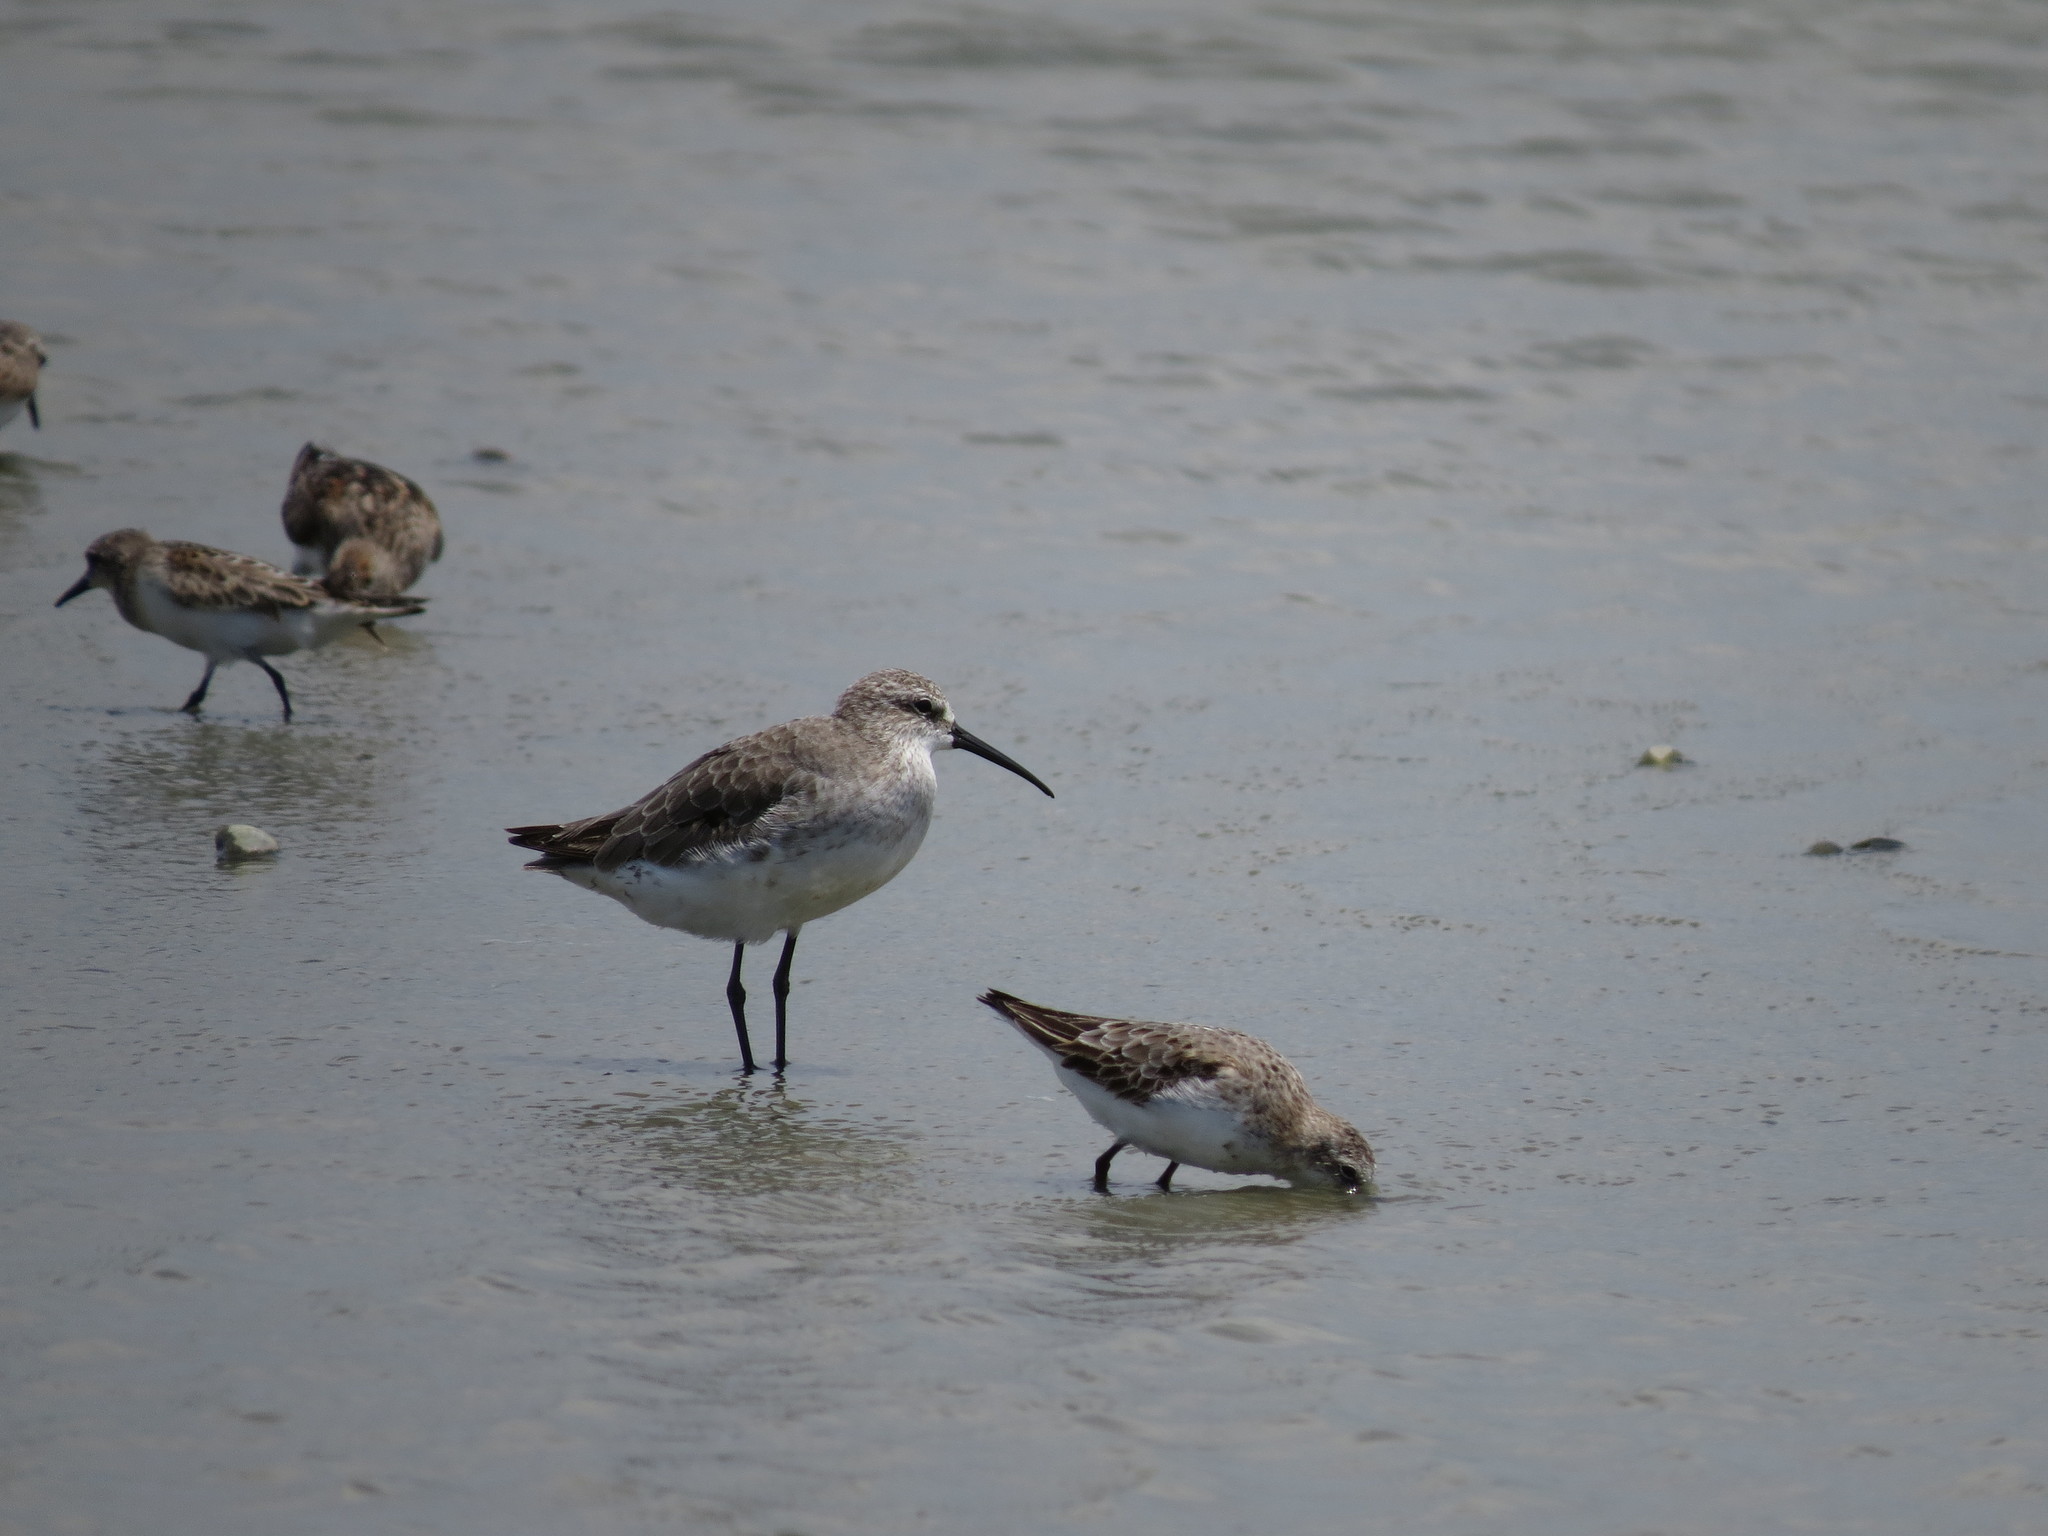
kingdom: Animalia
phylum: Chordata
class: Aves
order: Charadriiformes
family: Scolopacidae
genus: Calidris
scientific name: Calidris ferruginea
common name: Curlew sandpiper
